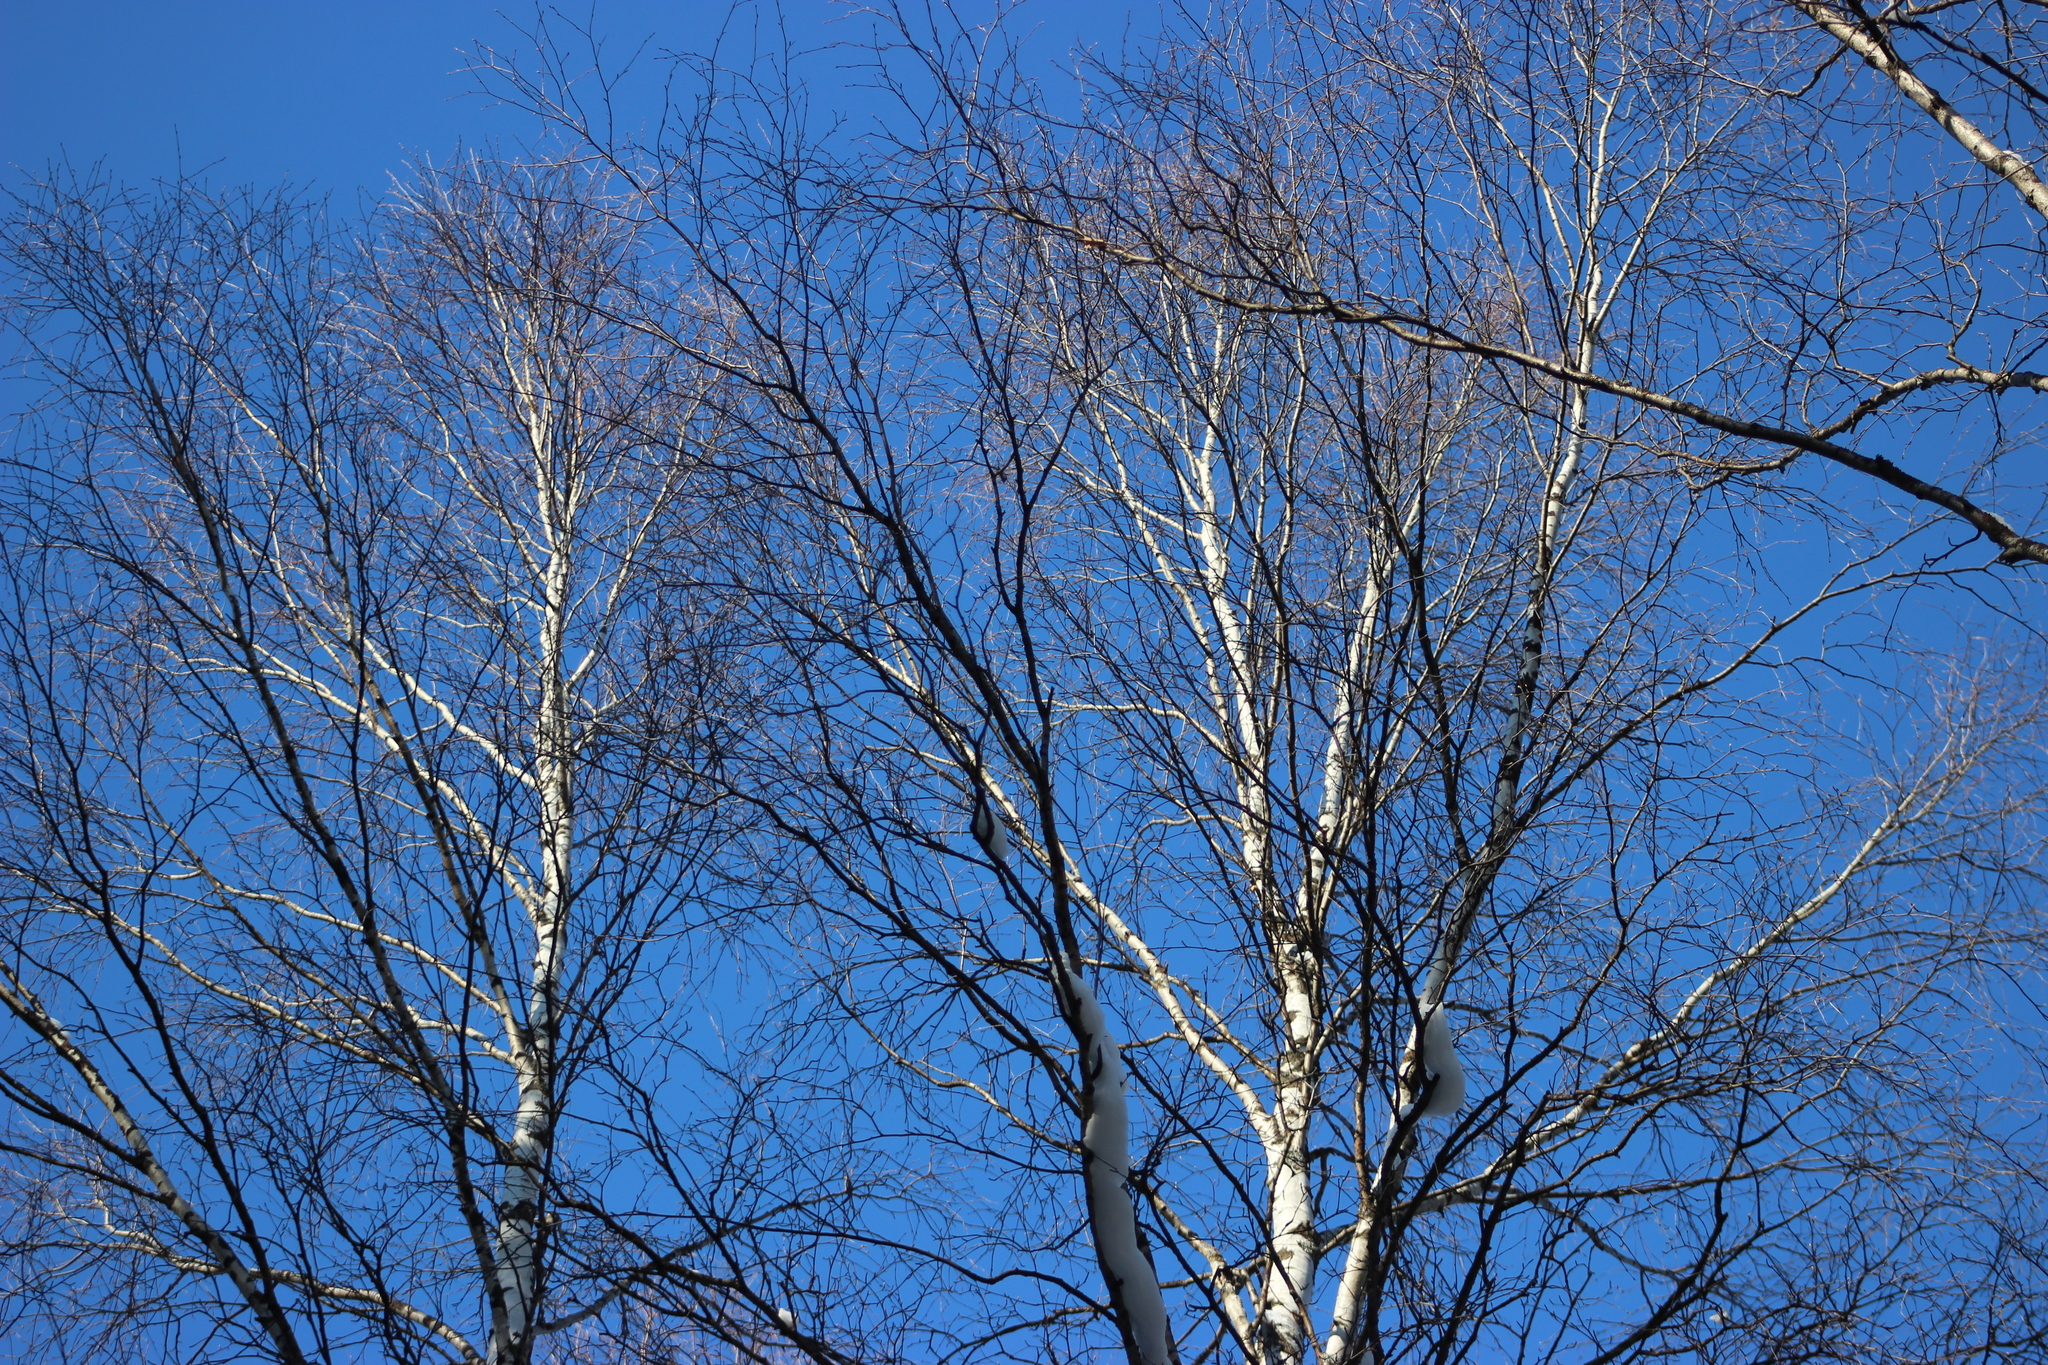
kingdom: Plantae
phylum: Tracheophyta
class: Magnoliopsida
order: Fagales
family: Betulaceae
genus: Betula
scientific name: Betula pubescens
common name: Downy birch
